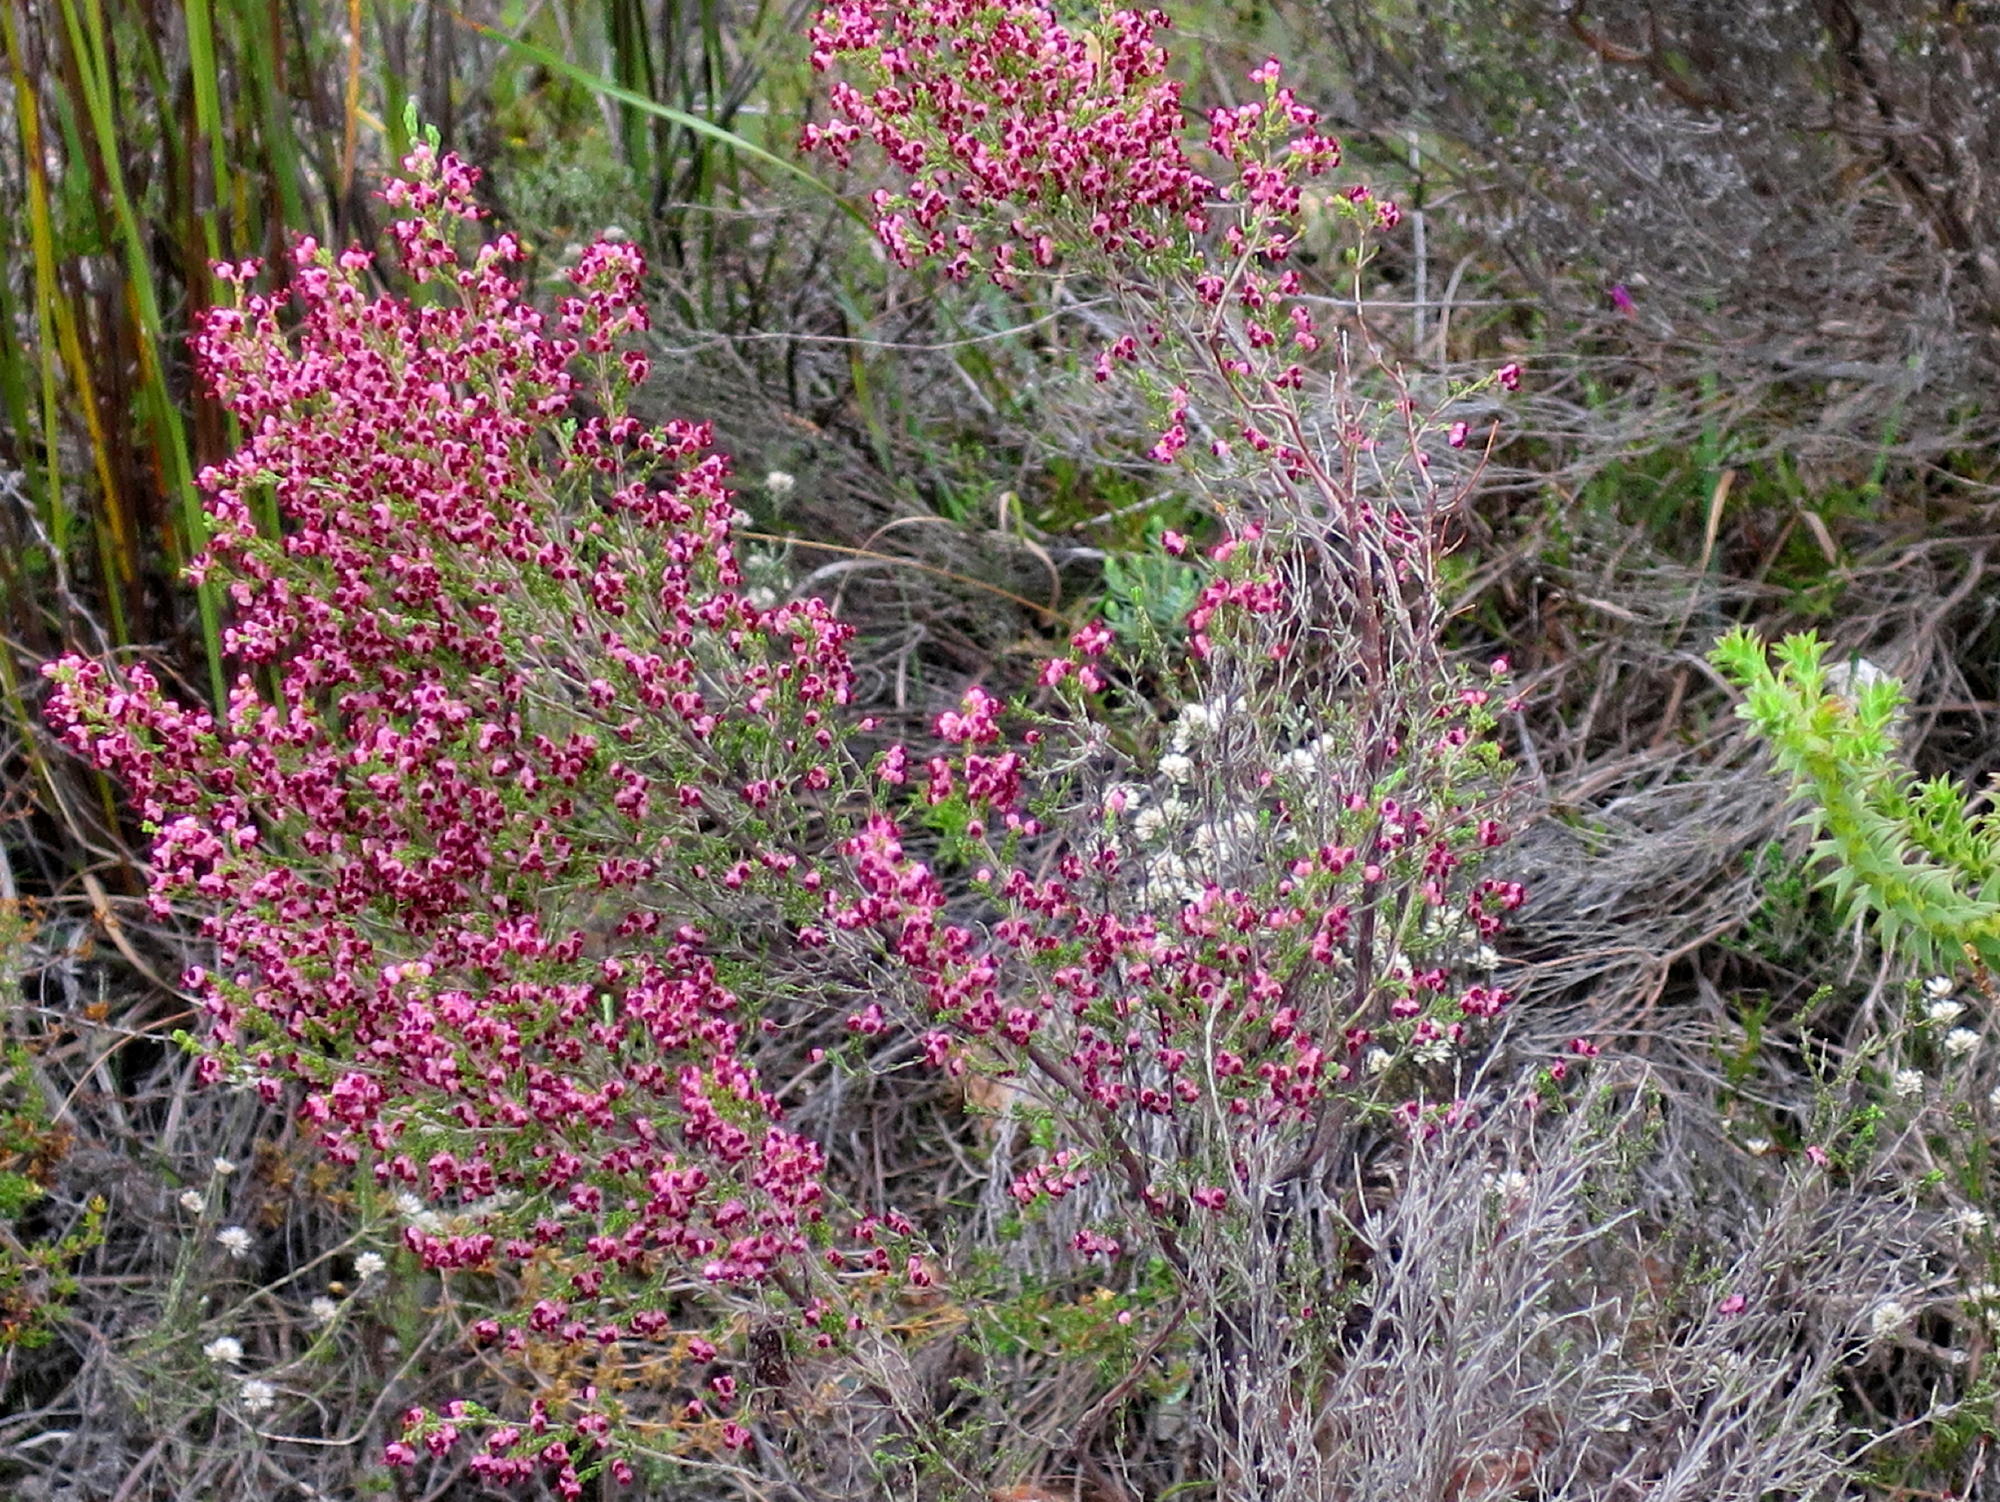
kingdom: Plantae
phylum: Tracheophyta
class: Magnoliopsida
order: Ericales
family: Ericaceae
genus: Erica
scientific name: Erica peltata
